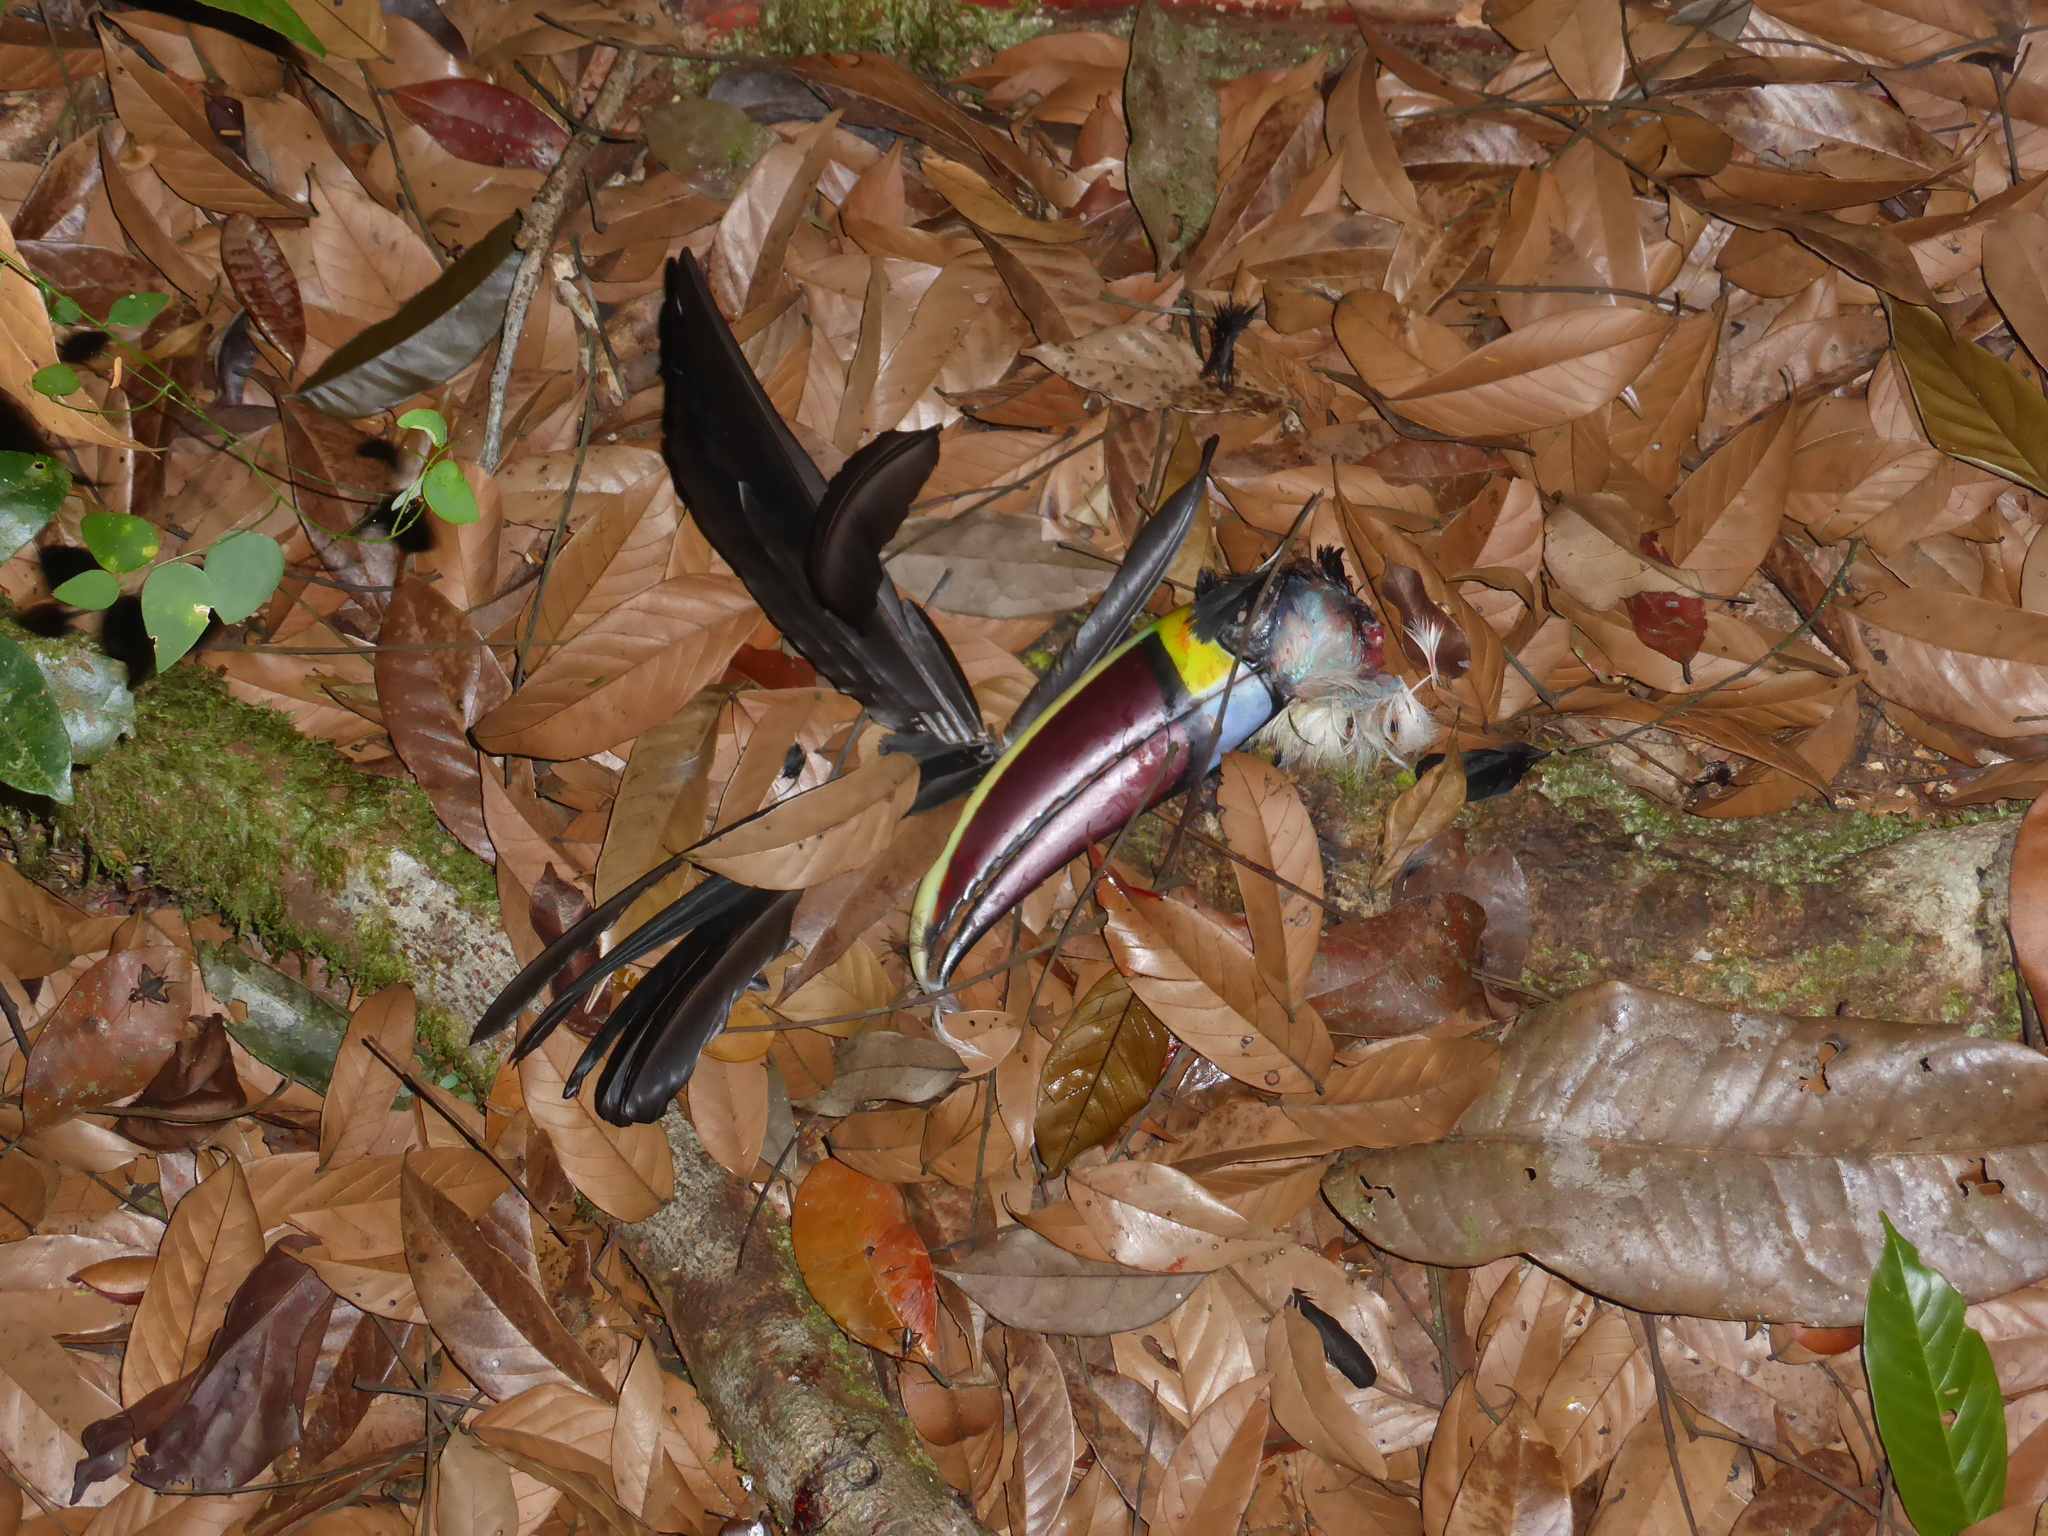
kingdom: Animalia
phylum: Chordata
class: Aves
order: Piciformes
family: Ramphastidae
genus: Ramphastos
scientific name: Ramphastos tucanus
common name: White-throated toucan
